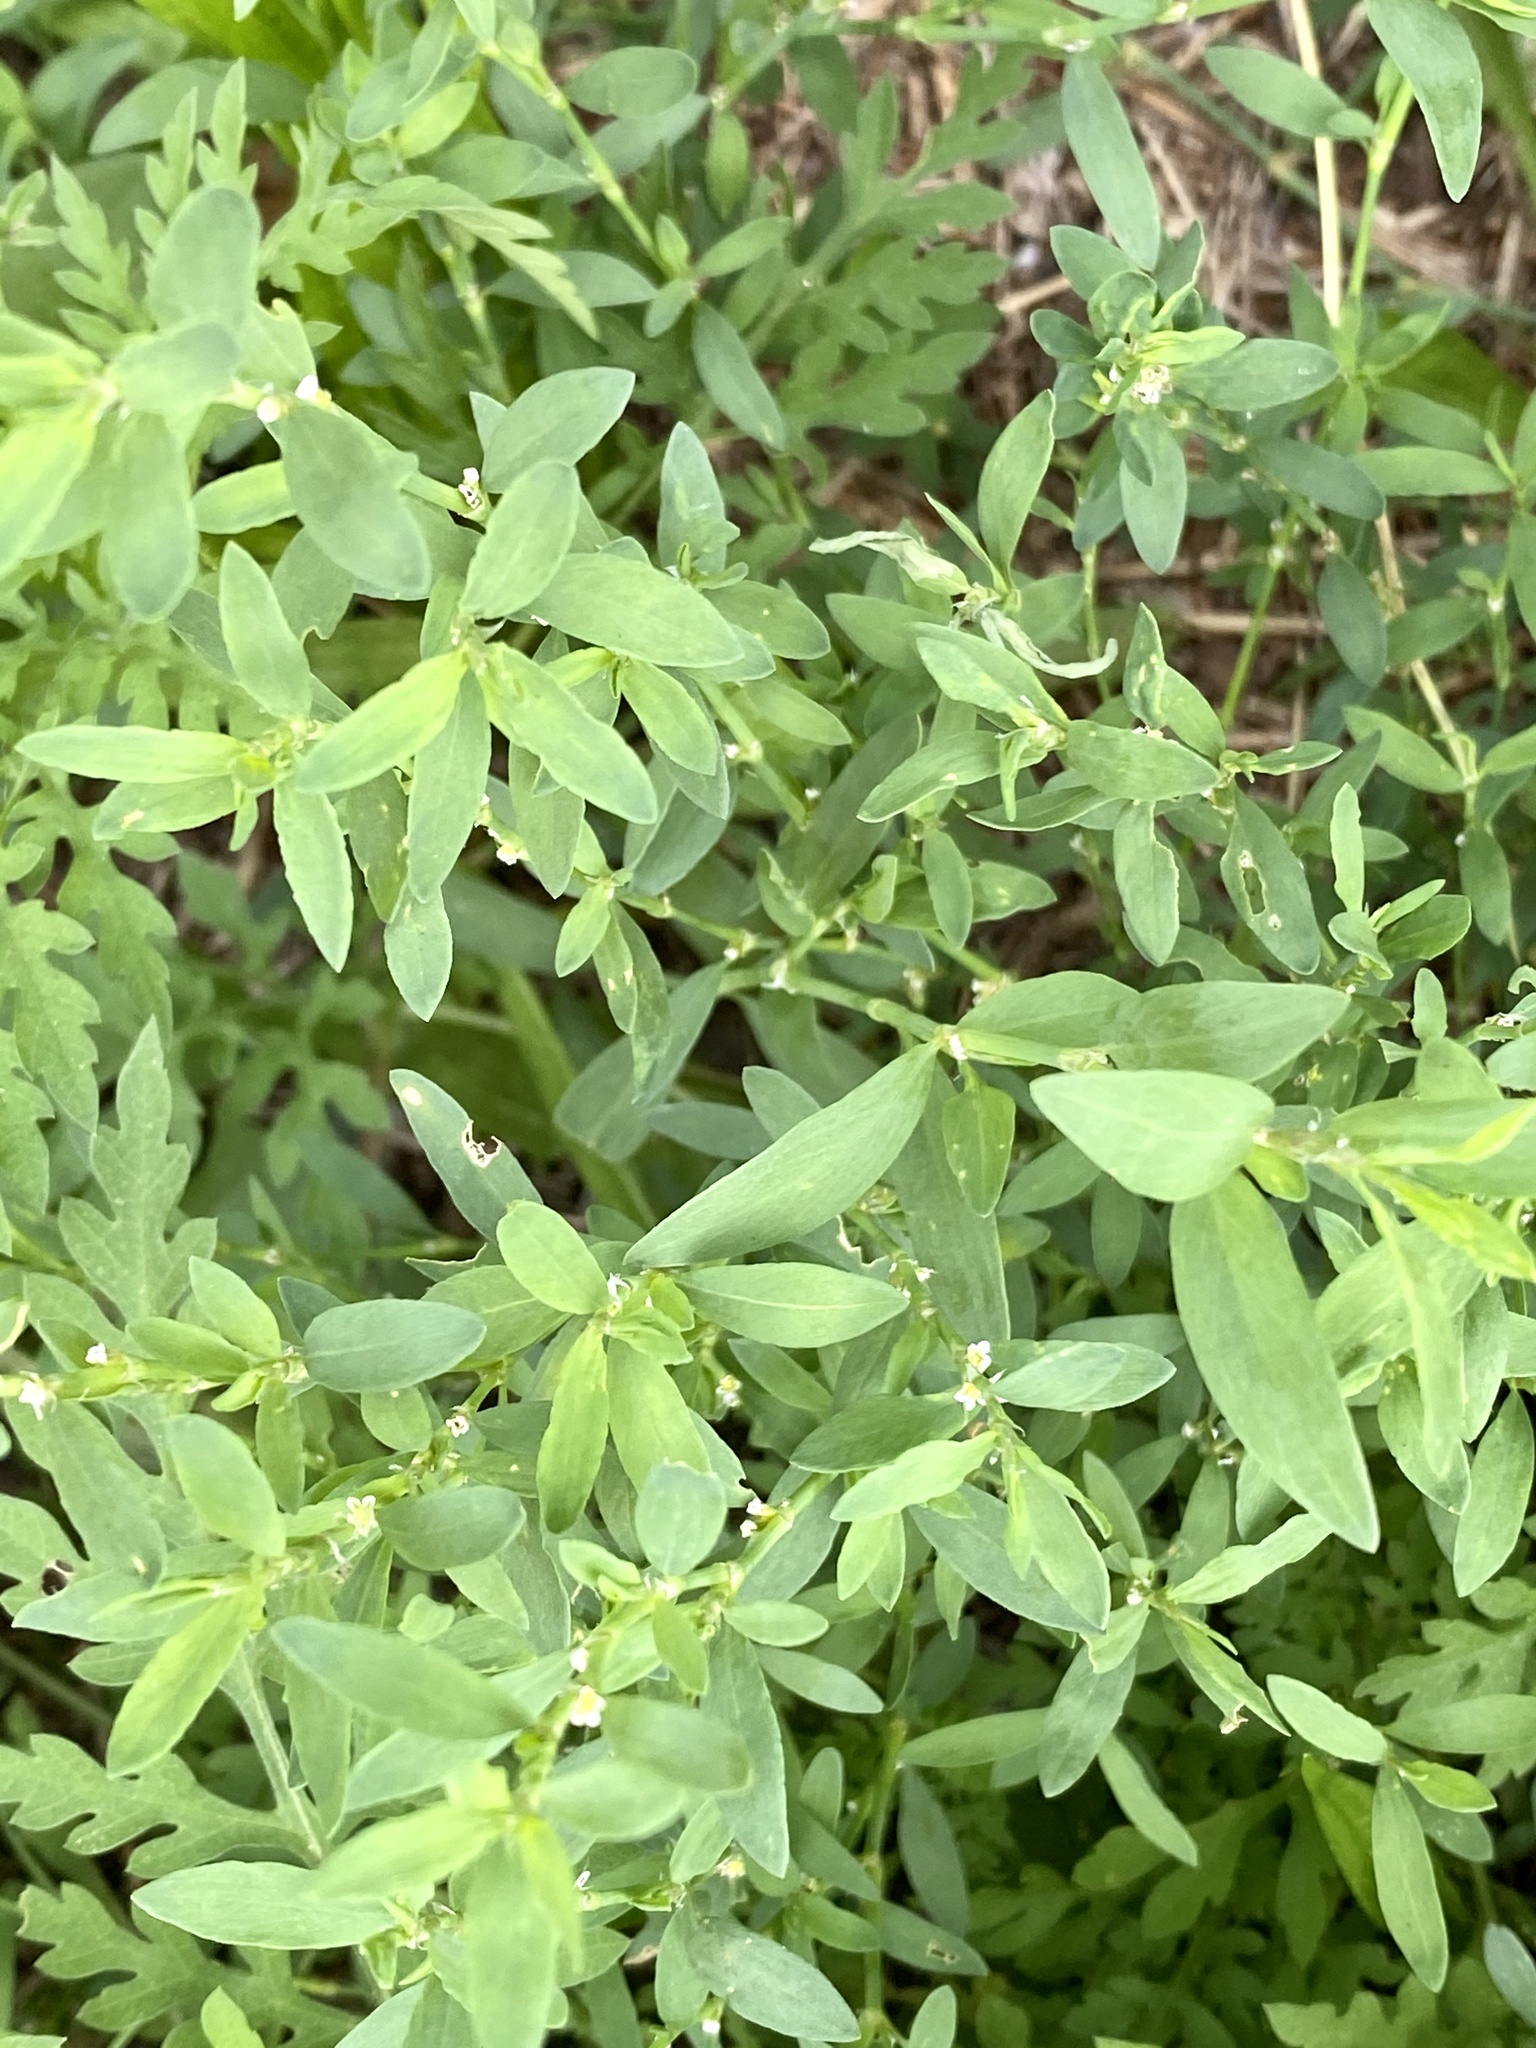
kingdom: Plantae
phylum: Tracheophyta
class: Magnoliopsida
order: Caryophyllales
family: Polygonaceae
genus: Polygonum
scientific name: Polygonum aviculare
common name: Prostrate knotweed
